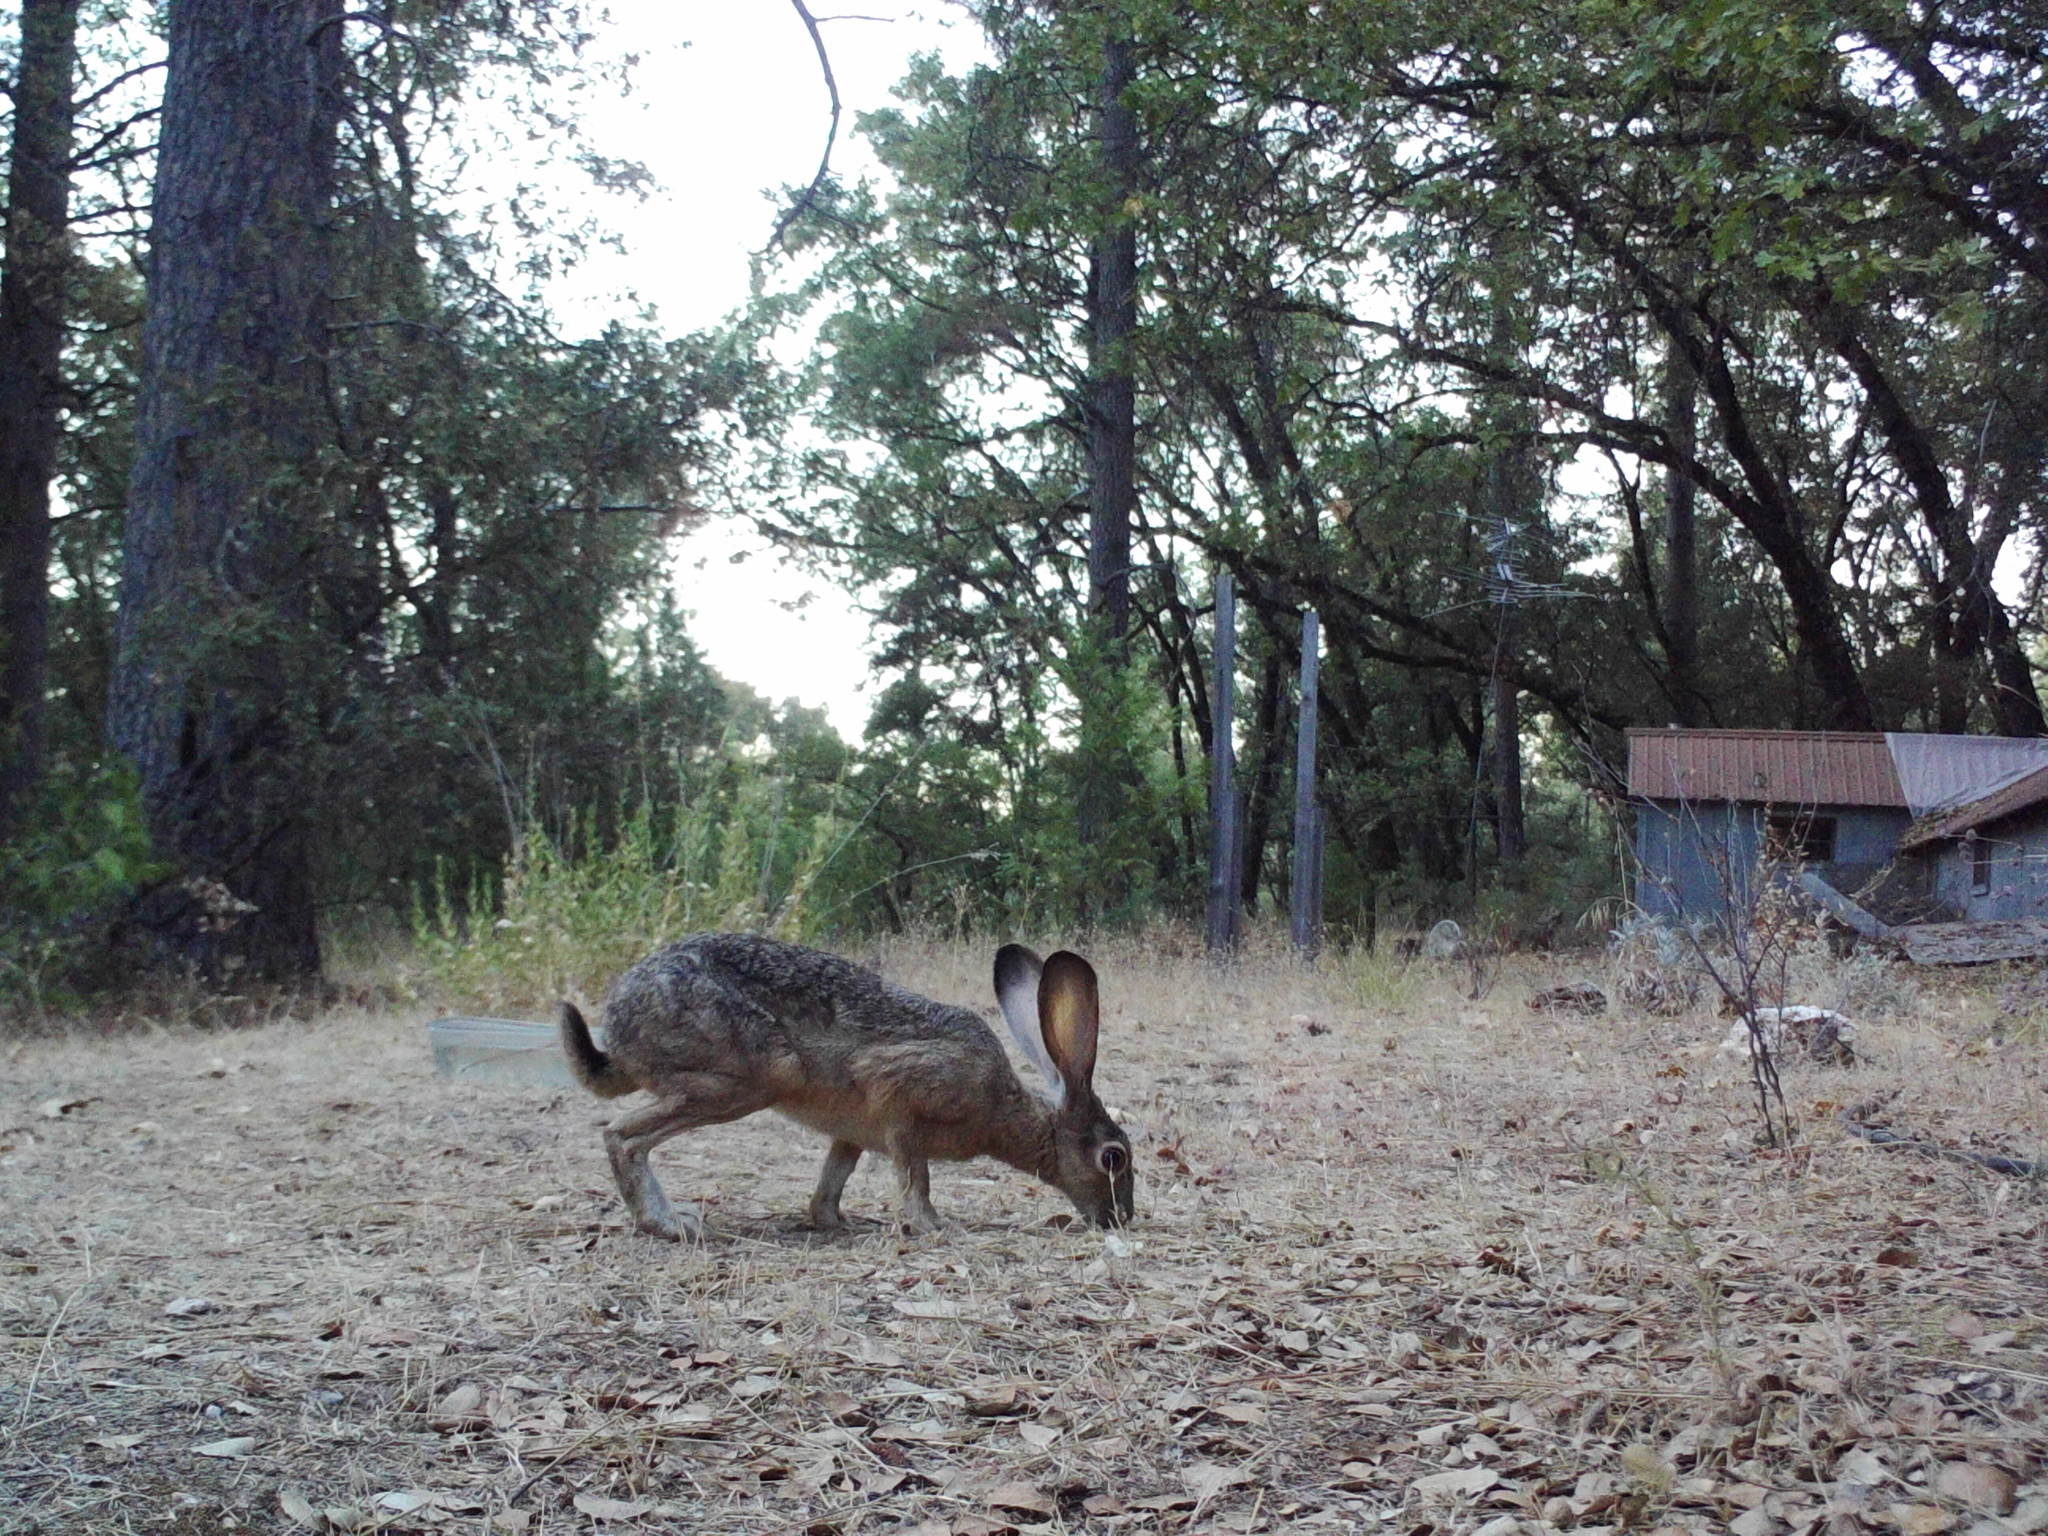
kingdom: Animalia
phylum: Chordata
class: Mammalia
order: Lagomorpha
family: Leporidae
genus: Lepus
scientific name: Lepus californicus
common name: Black-tailed jackrabbit
